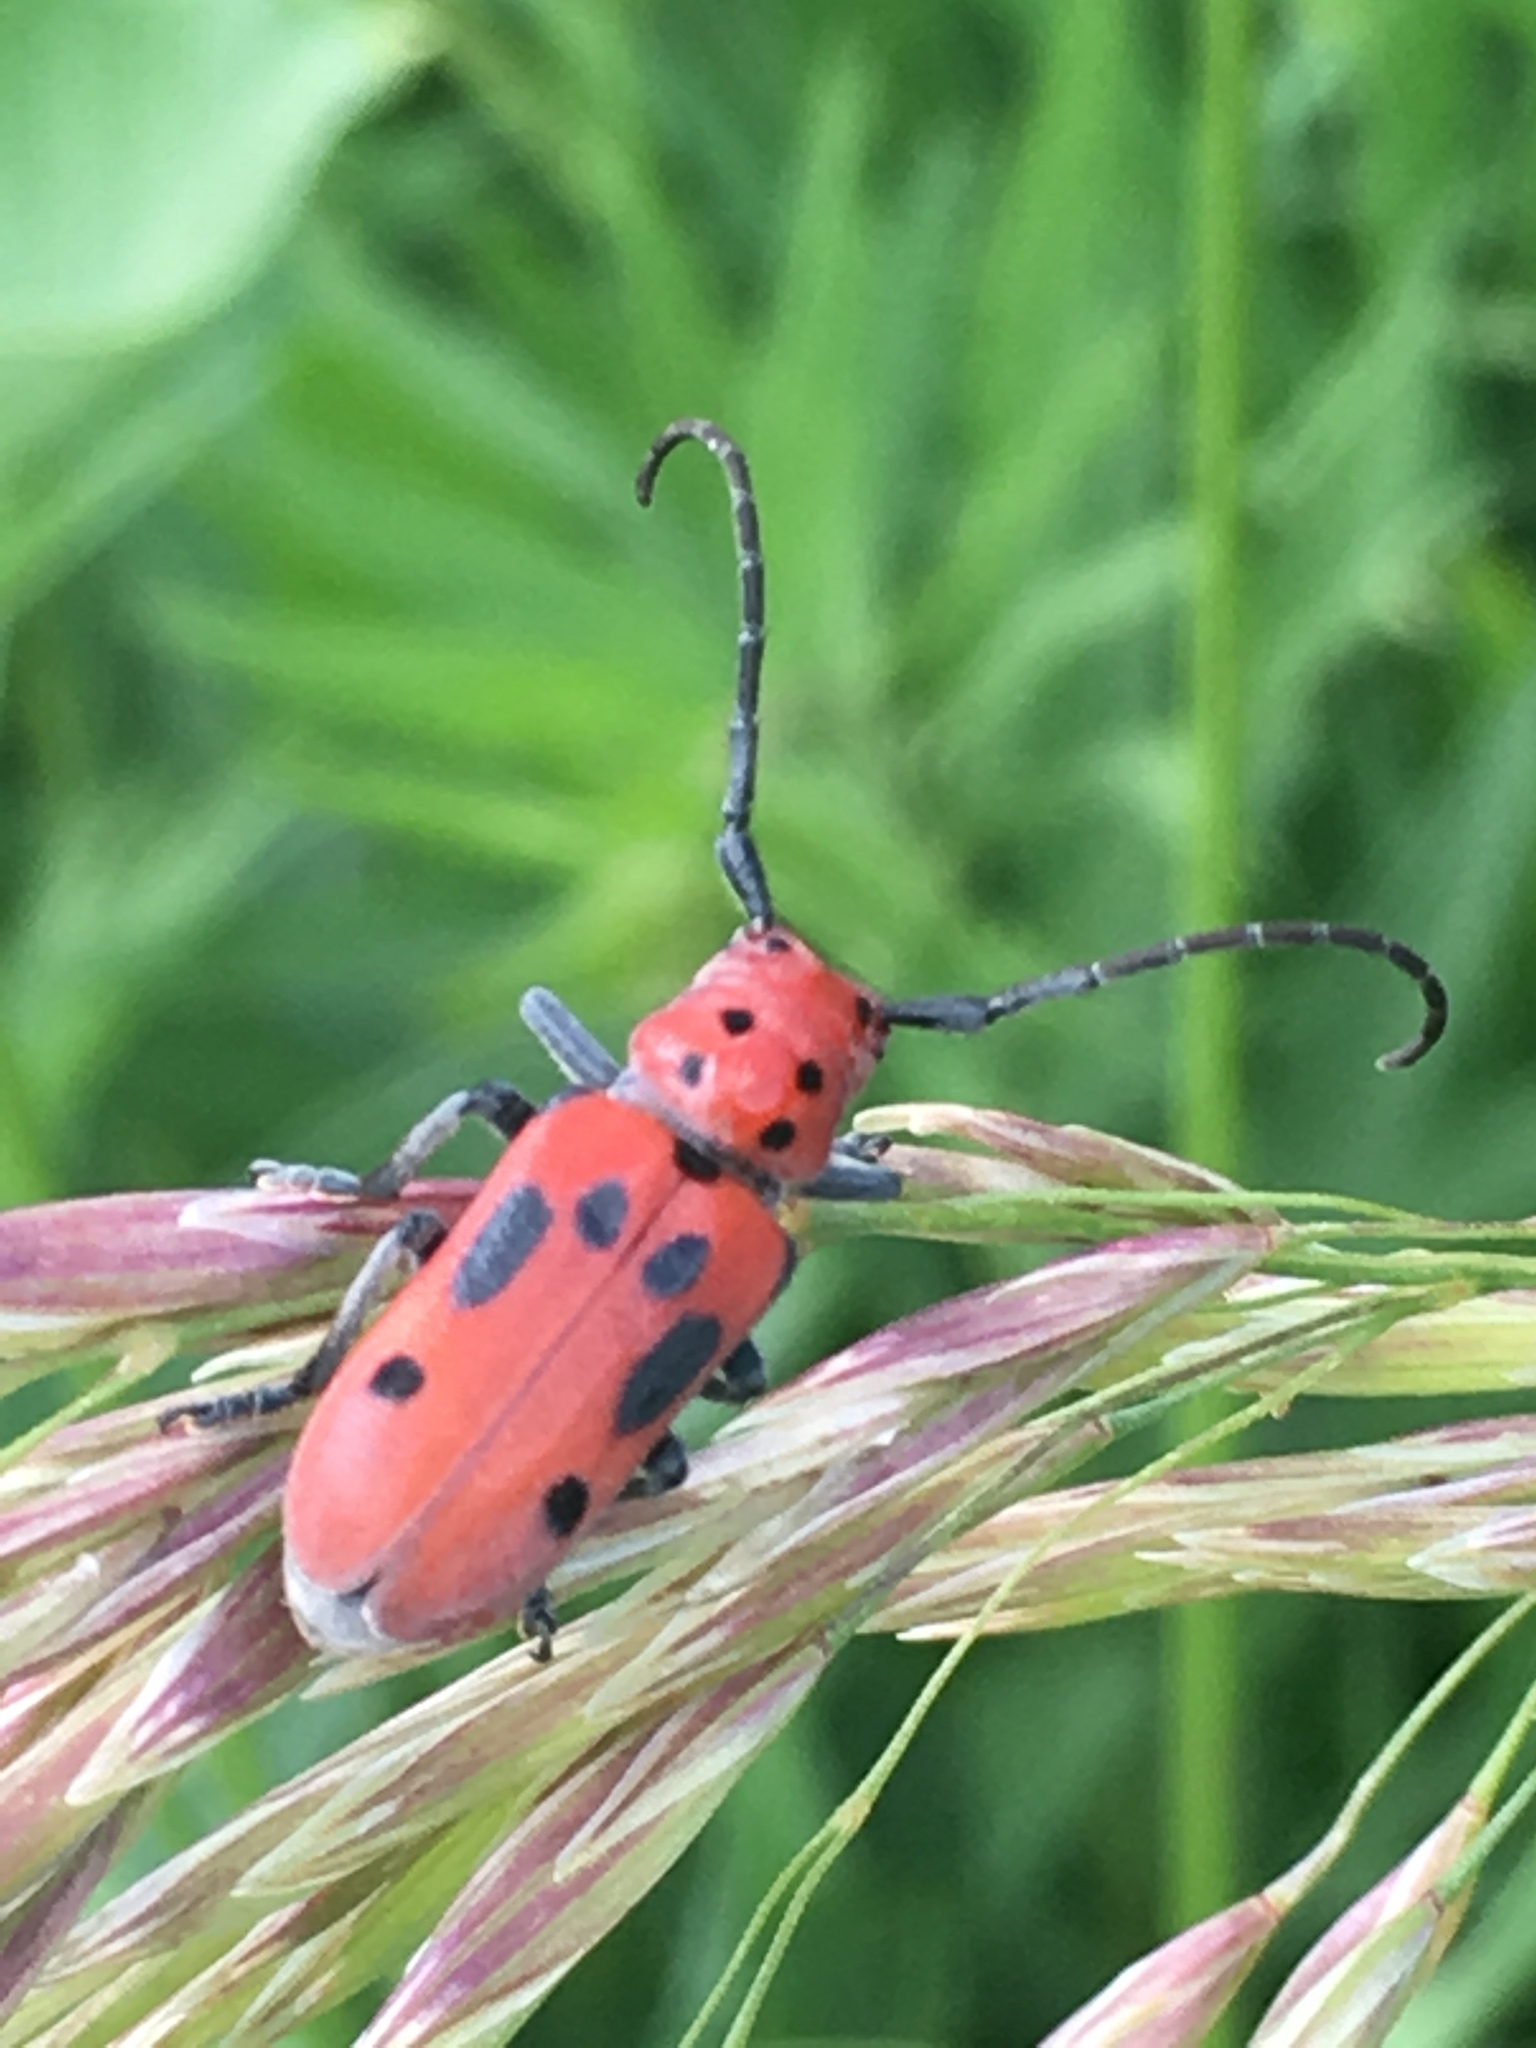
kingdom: Animalia
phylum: Arthropoda
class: Insecta
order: Coleoptera
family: Cerambycidae
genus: Tetraopes
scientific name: Tetraopes tetrophthalmus
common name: Red milkweed beetle
